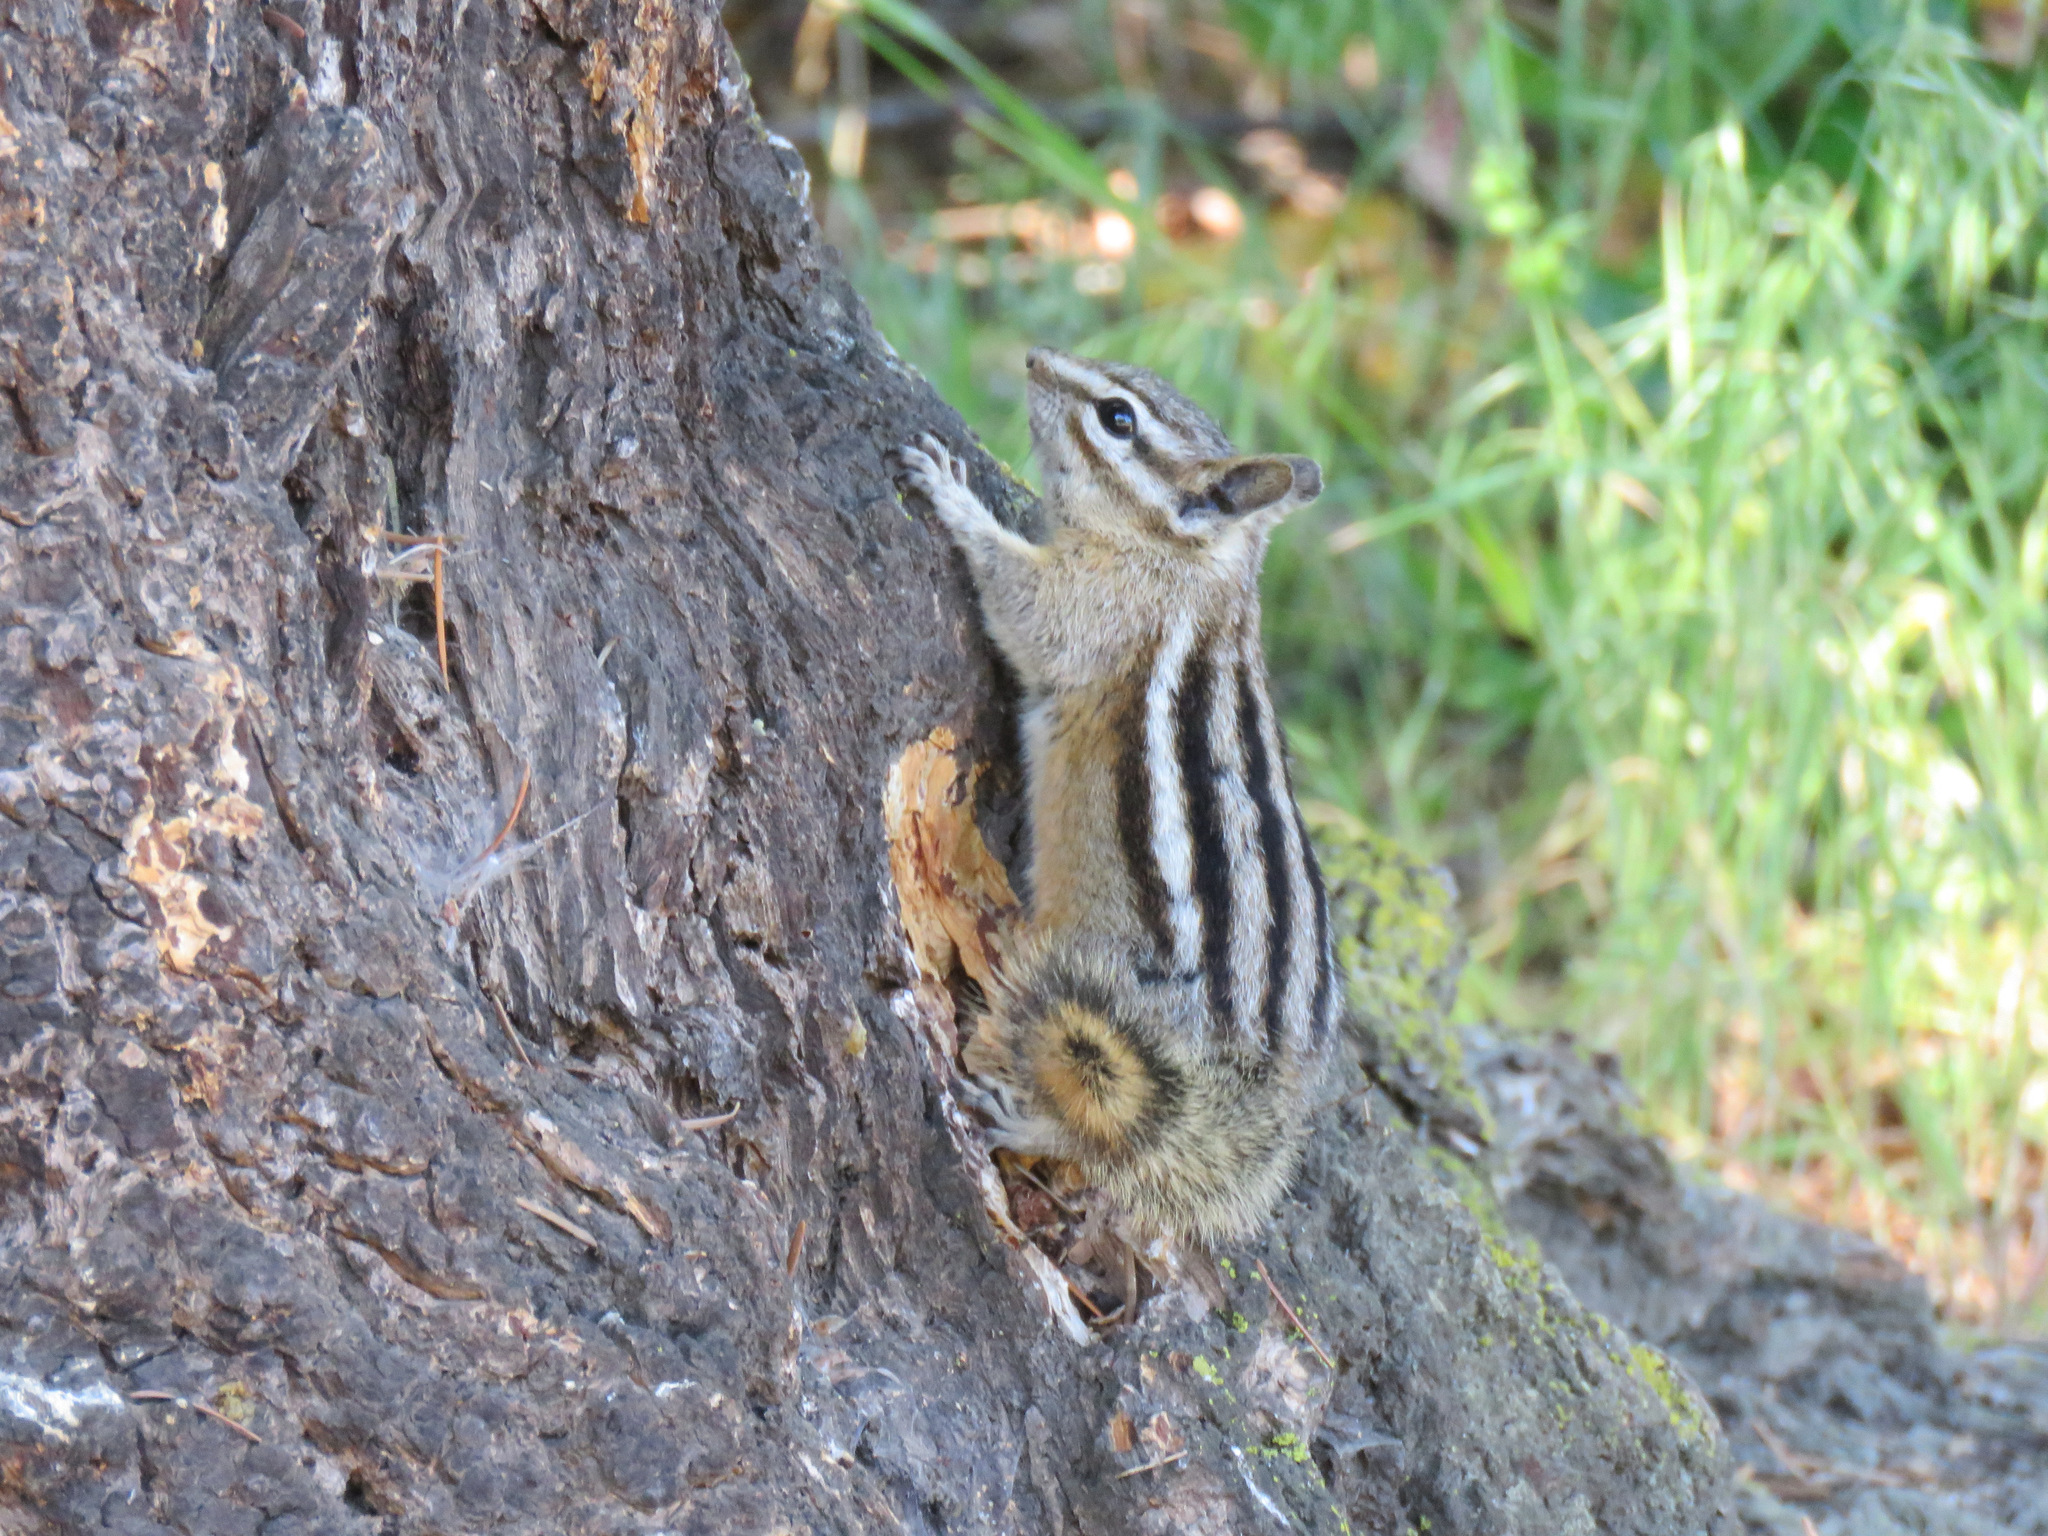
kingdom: Animalia
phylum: Chordata
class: Mammalia
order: Rodentia
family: Sciuridae
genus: Tamias
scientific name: Tamias amoenus
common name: Yellow-pine chipmunk
